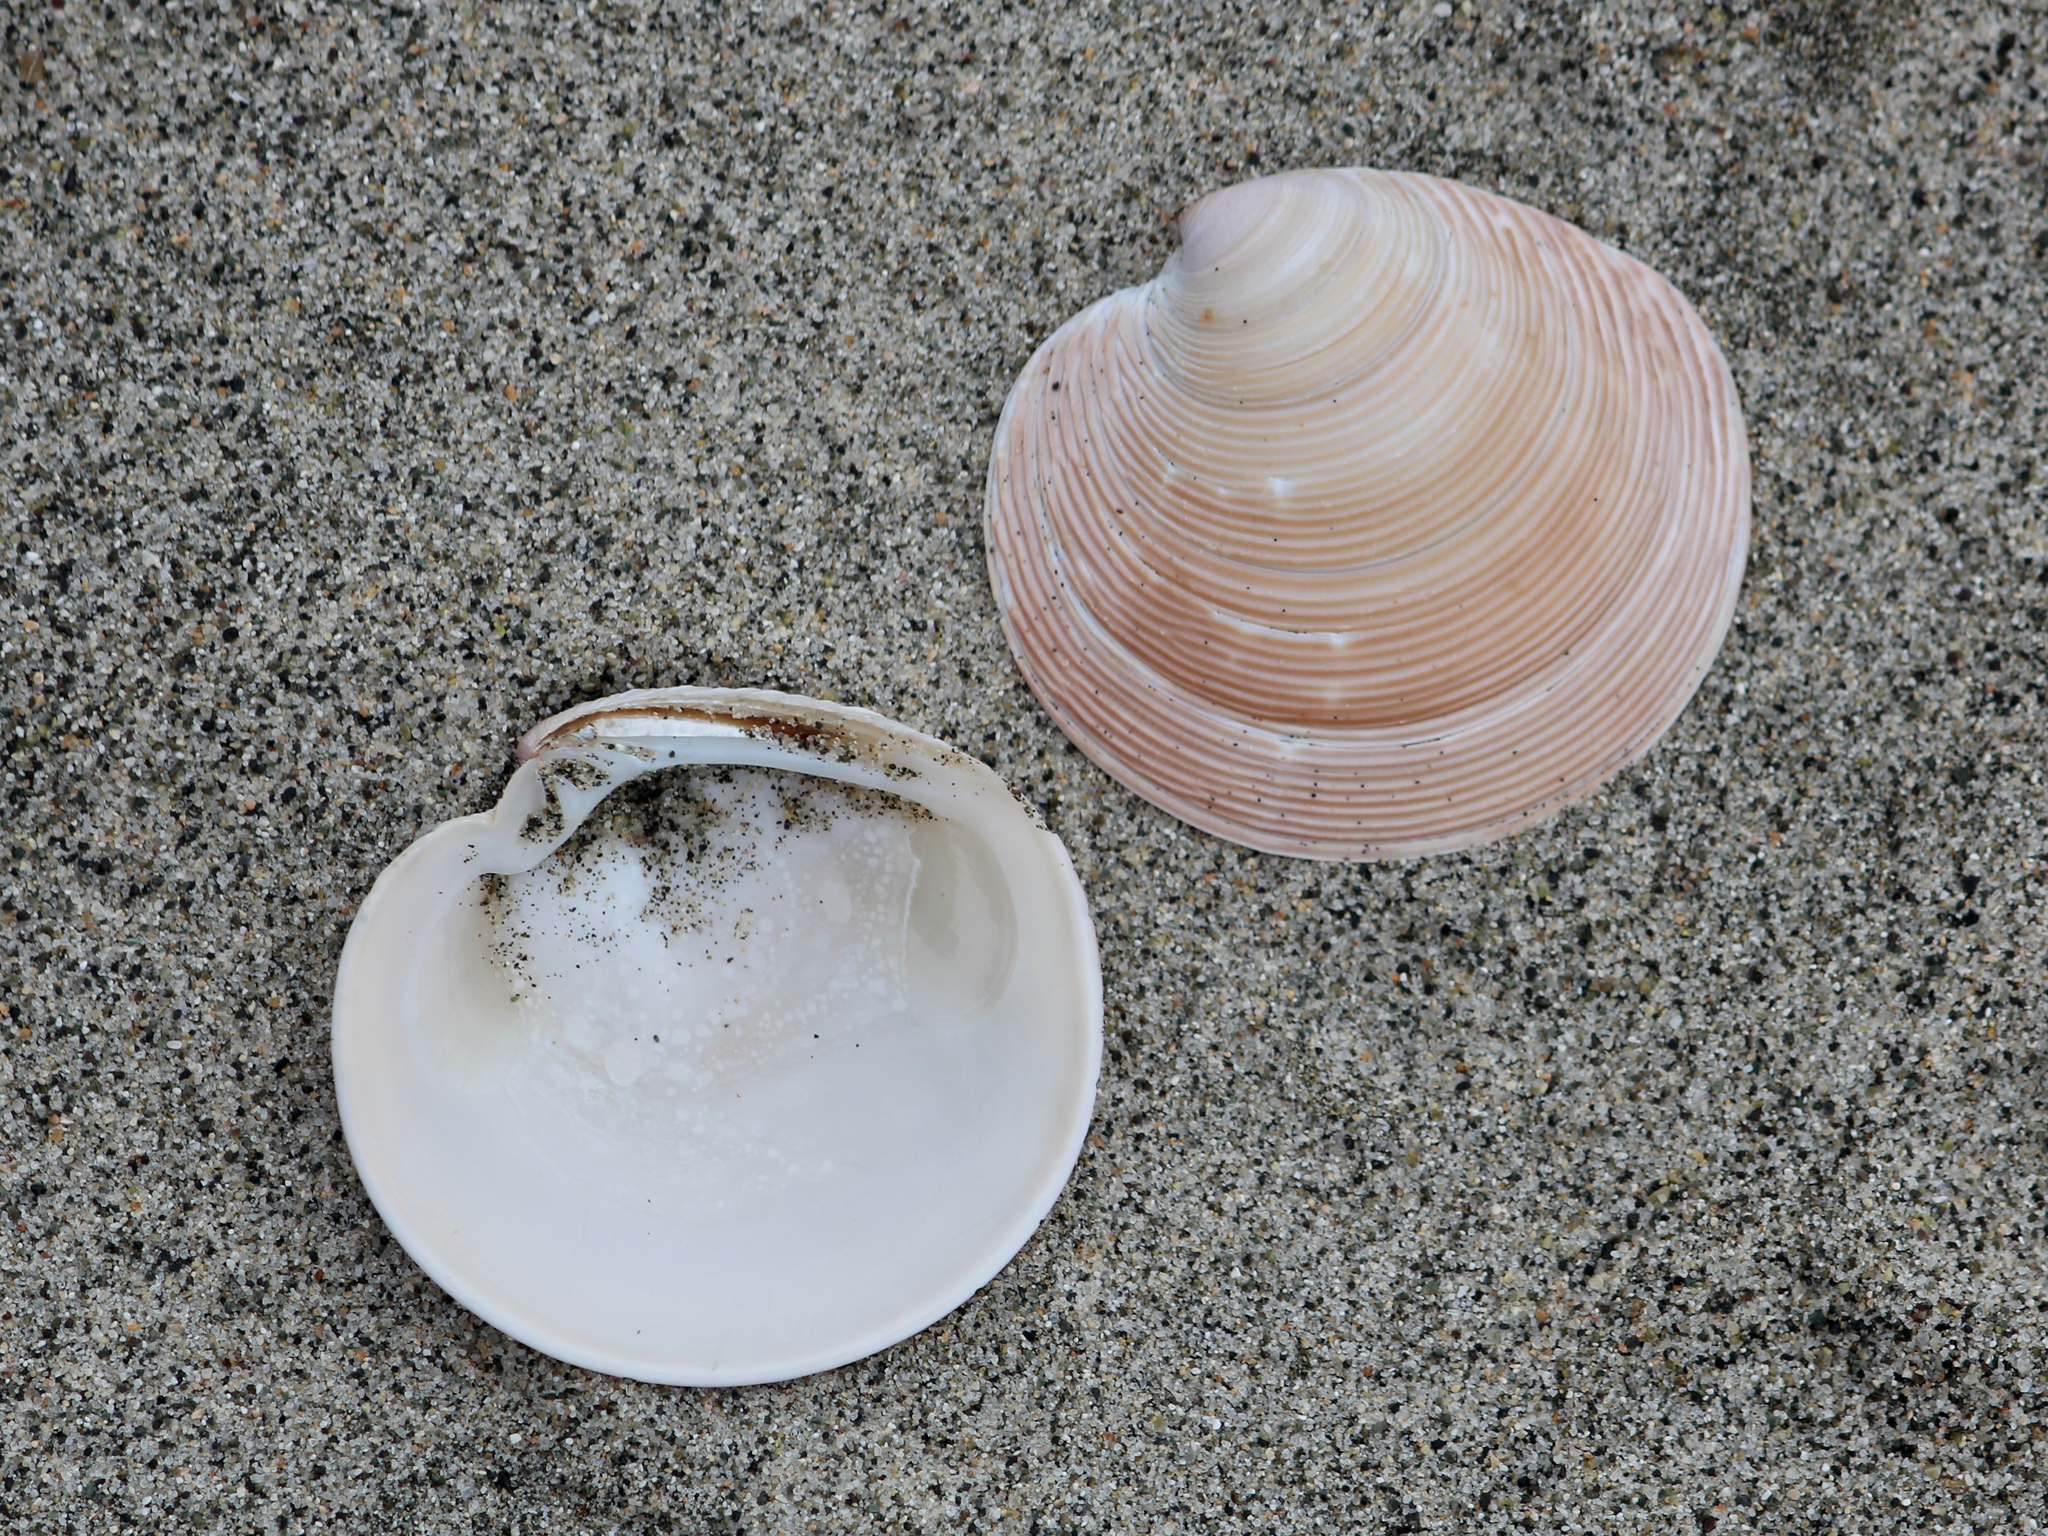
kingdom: Animalia
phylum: Mollusca
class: Bivalvia
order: Venerida
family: Veneridae
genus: Dosinia
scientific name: Dosinia anus
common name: Old-woman dosinia
